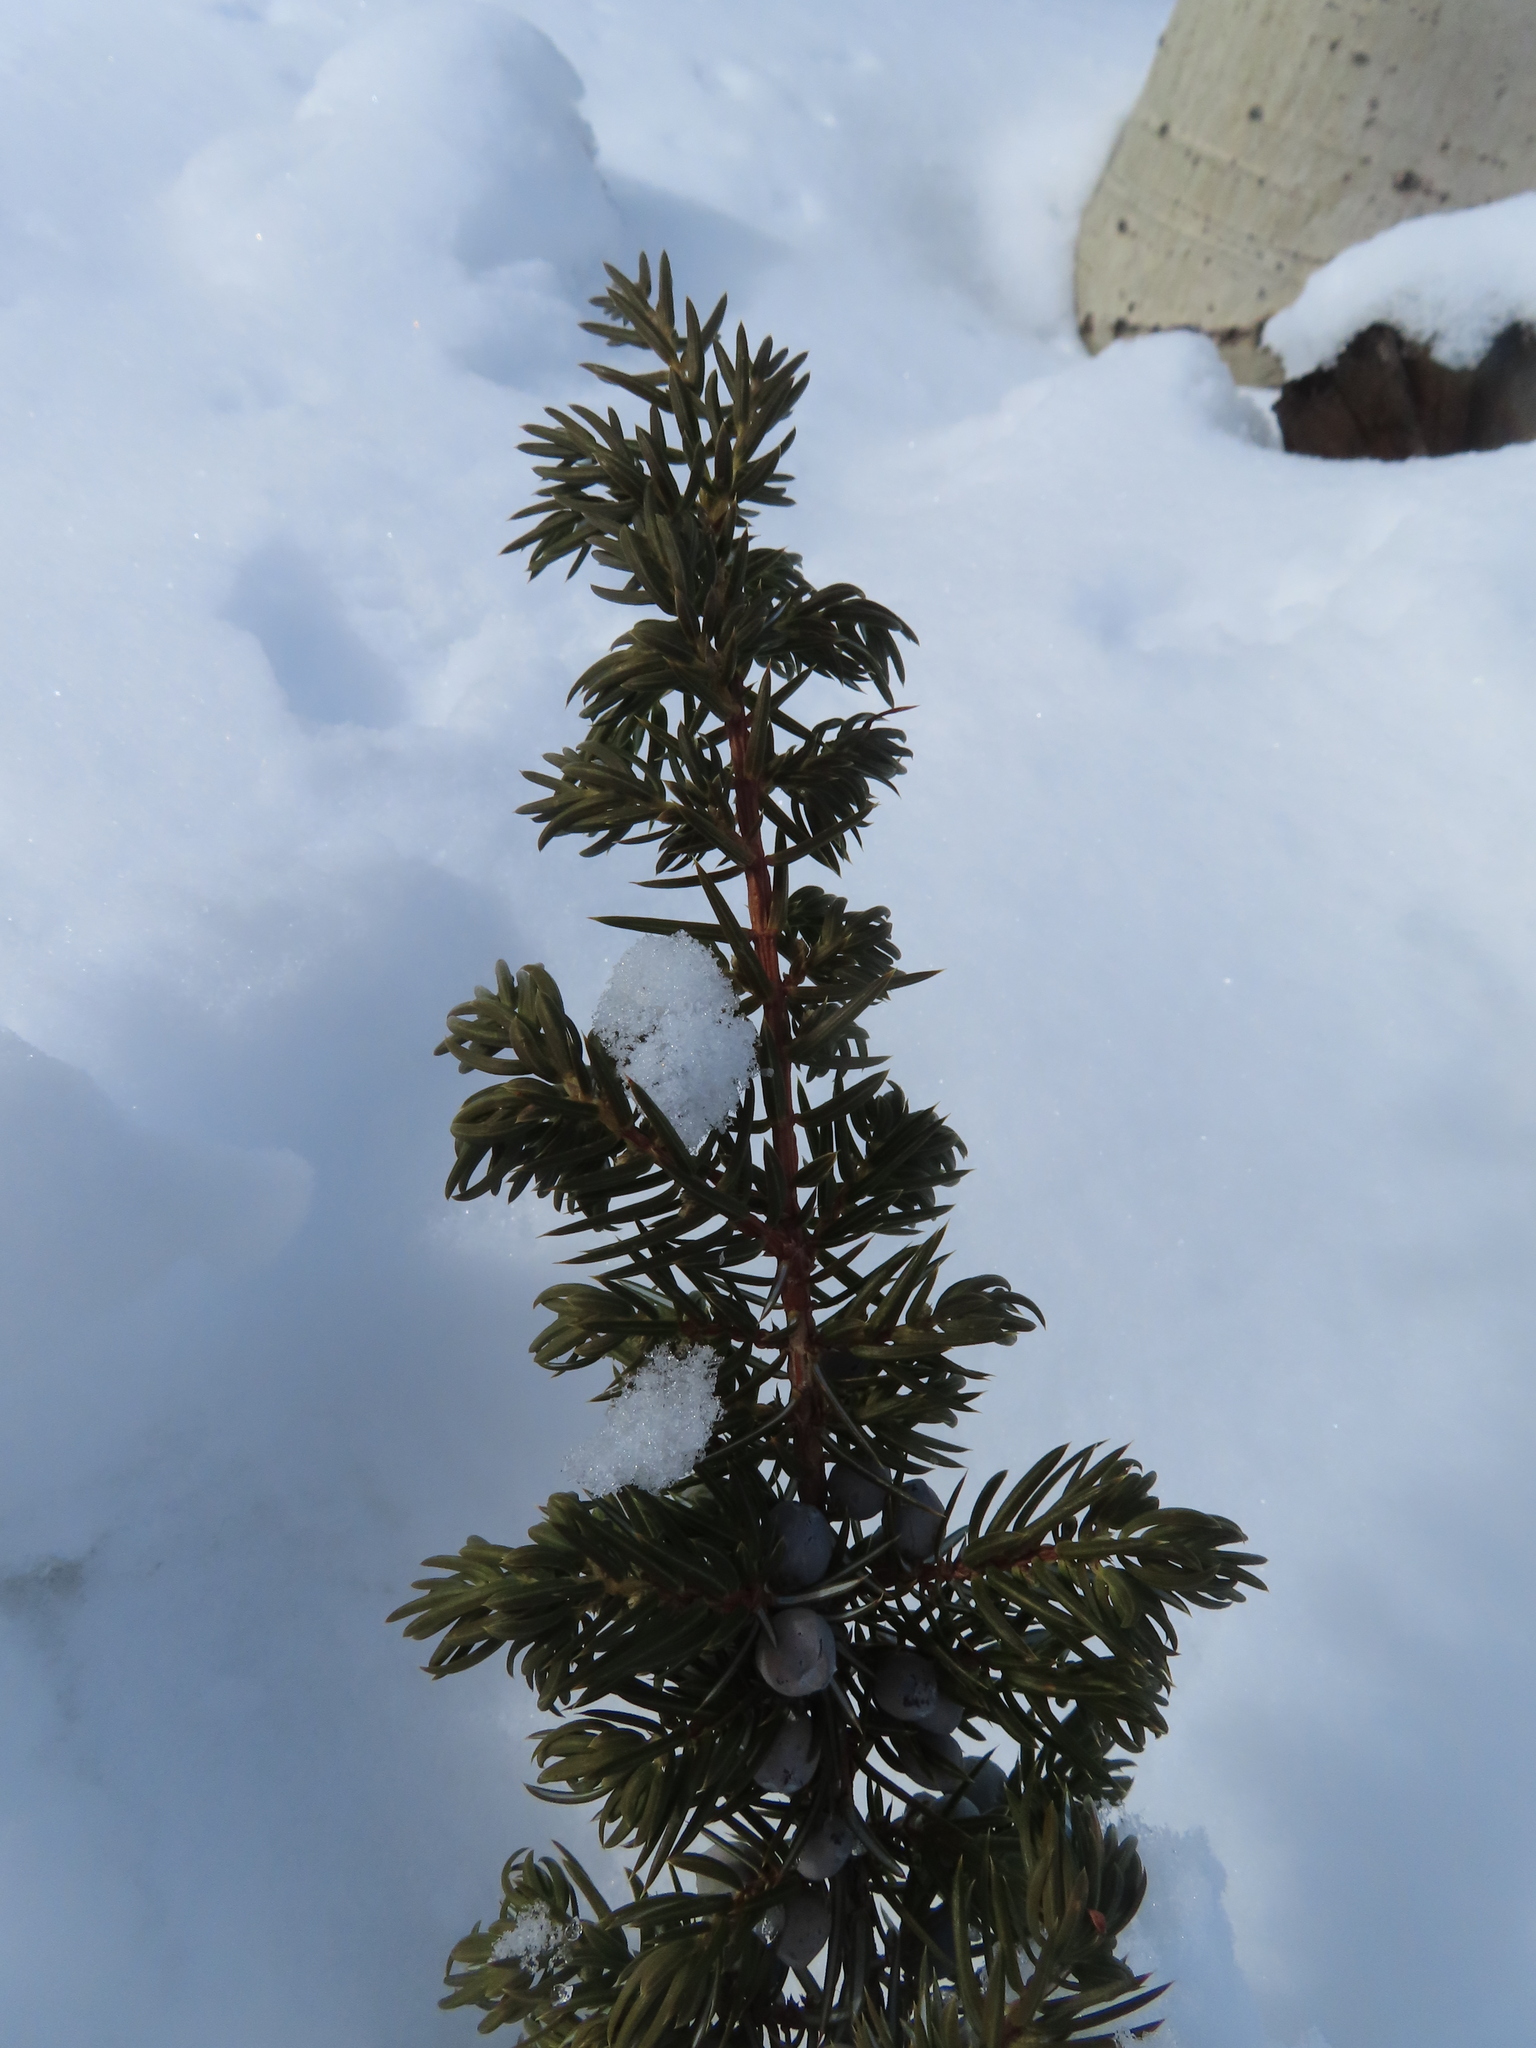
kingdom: Plantae
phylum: Tracheophyta
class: Pinopsida
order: Pinales
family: Cupressaceae
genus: Juniperus
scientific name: Juniperus communis
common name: Common juniper
